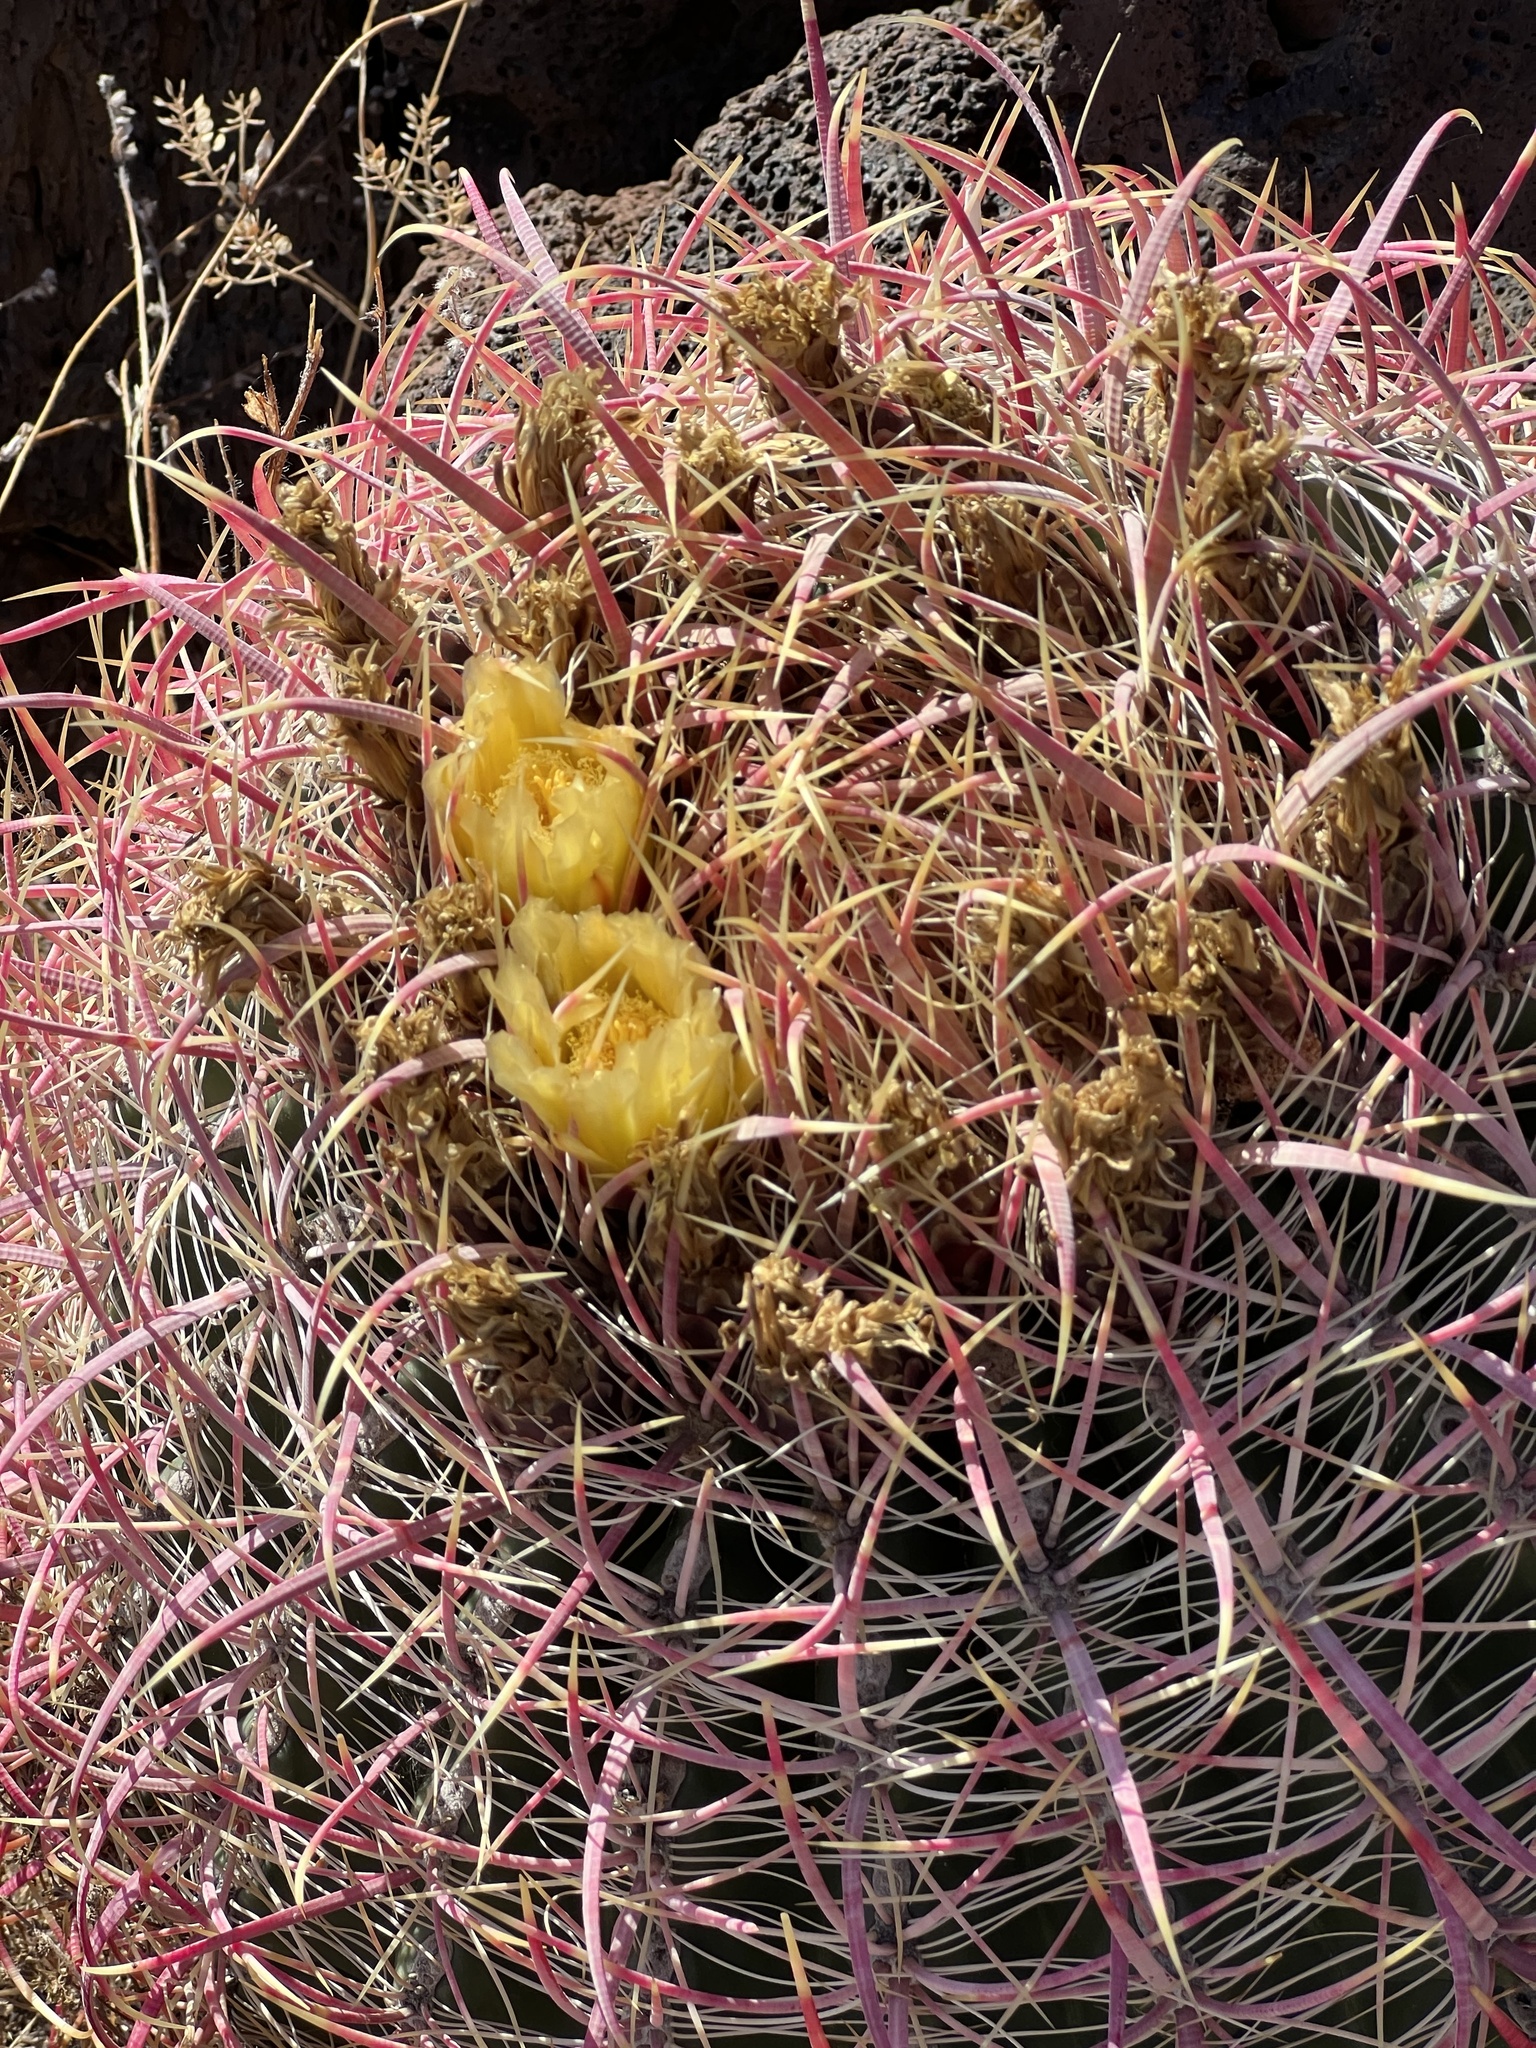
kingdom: Plantae
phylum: Tracheophyta
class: Magnoliopsida
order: Caryophyllales
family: Cactaceae
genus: Ferocactus
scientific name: Ferocactus cylindraceus
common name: California barrel cactus
